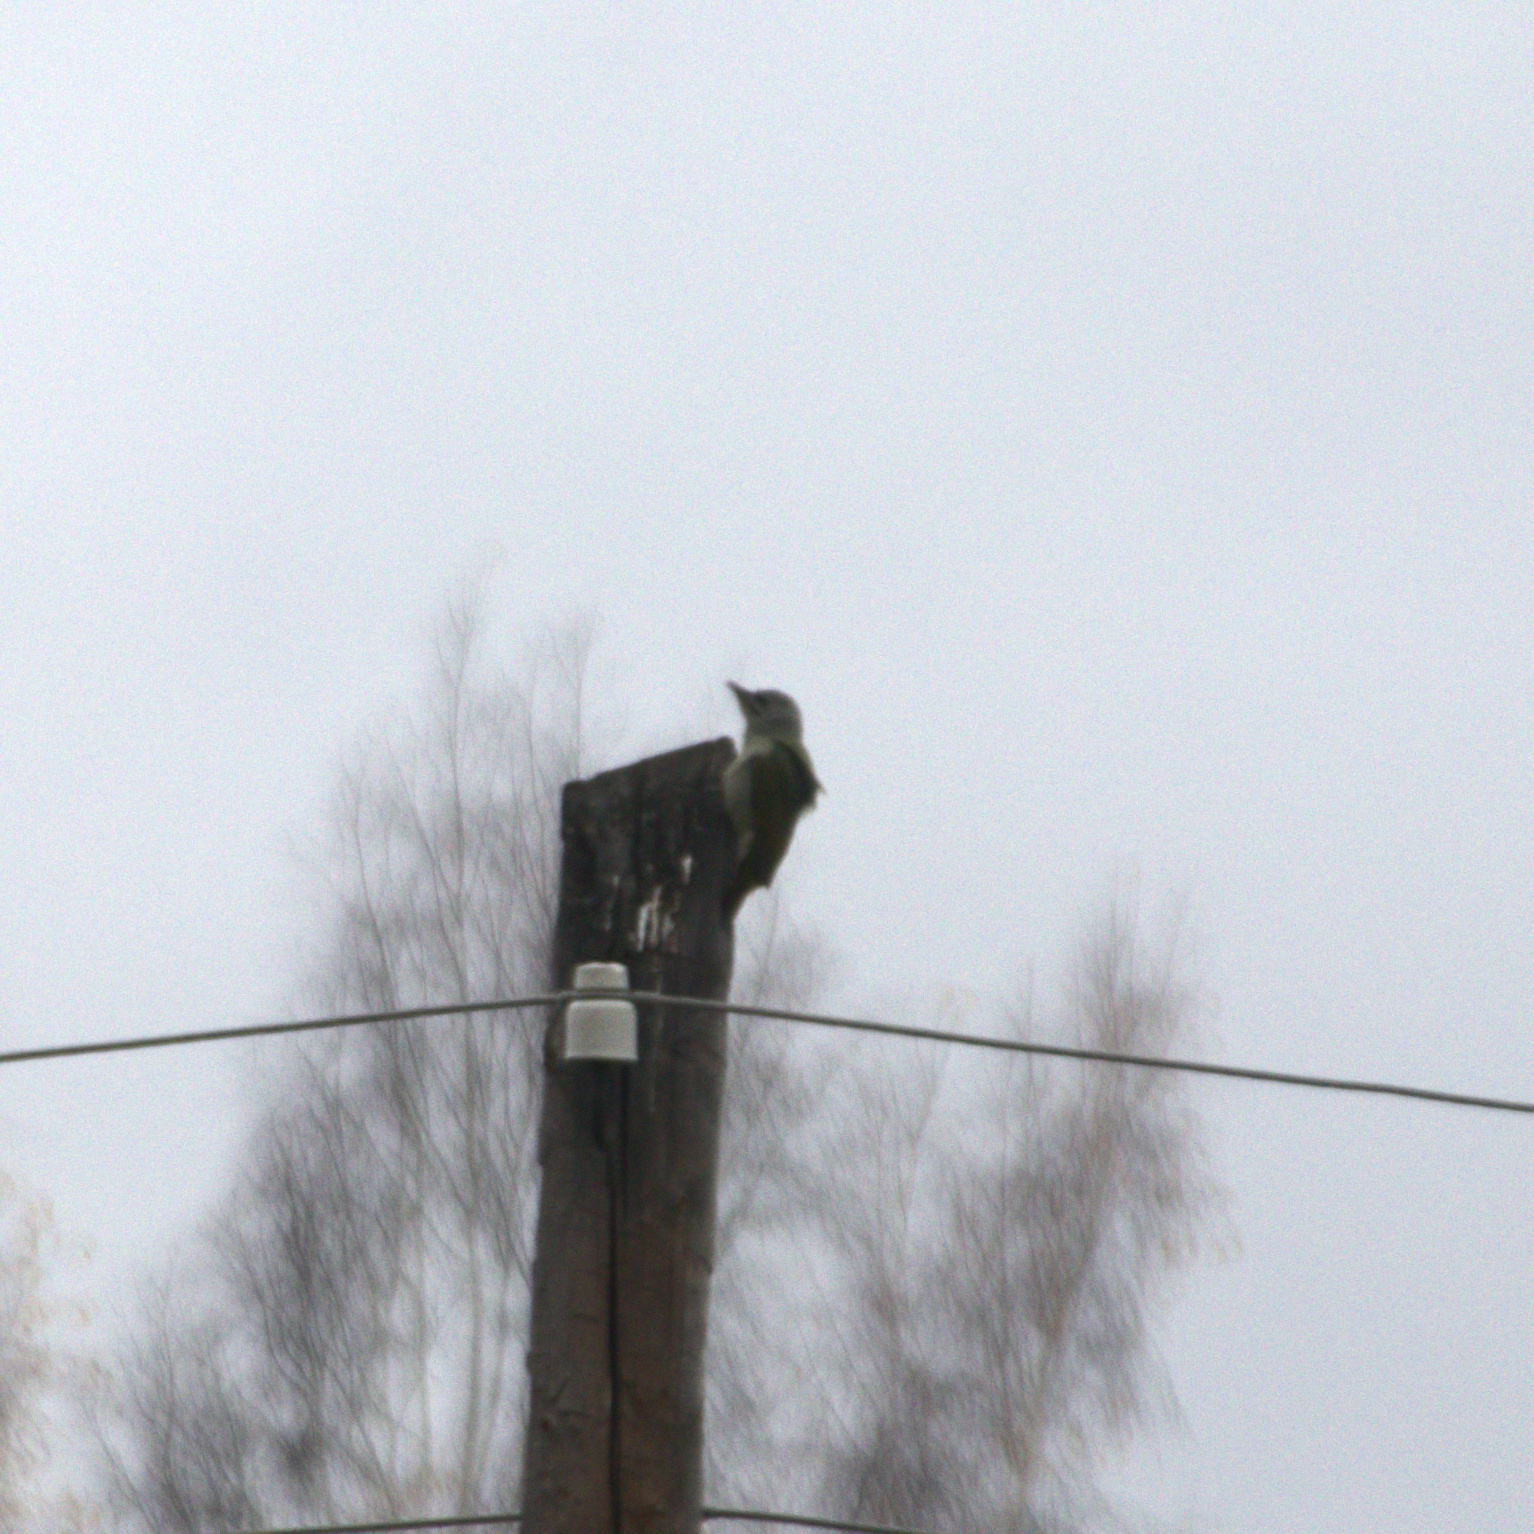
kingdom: Animalia
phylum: Chordata
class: Aves
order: Piciformes
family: Picidae
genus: Picus
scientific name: Picus canus
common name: Grey-headed woodpecker
